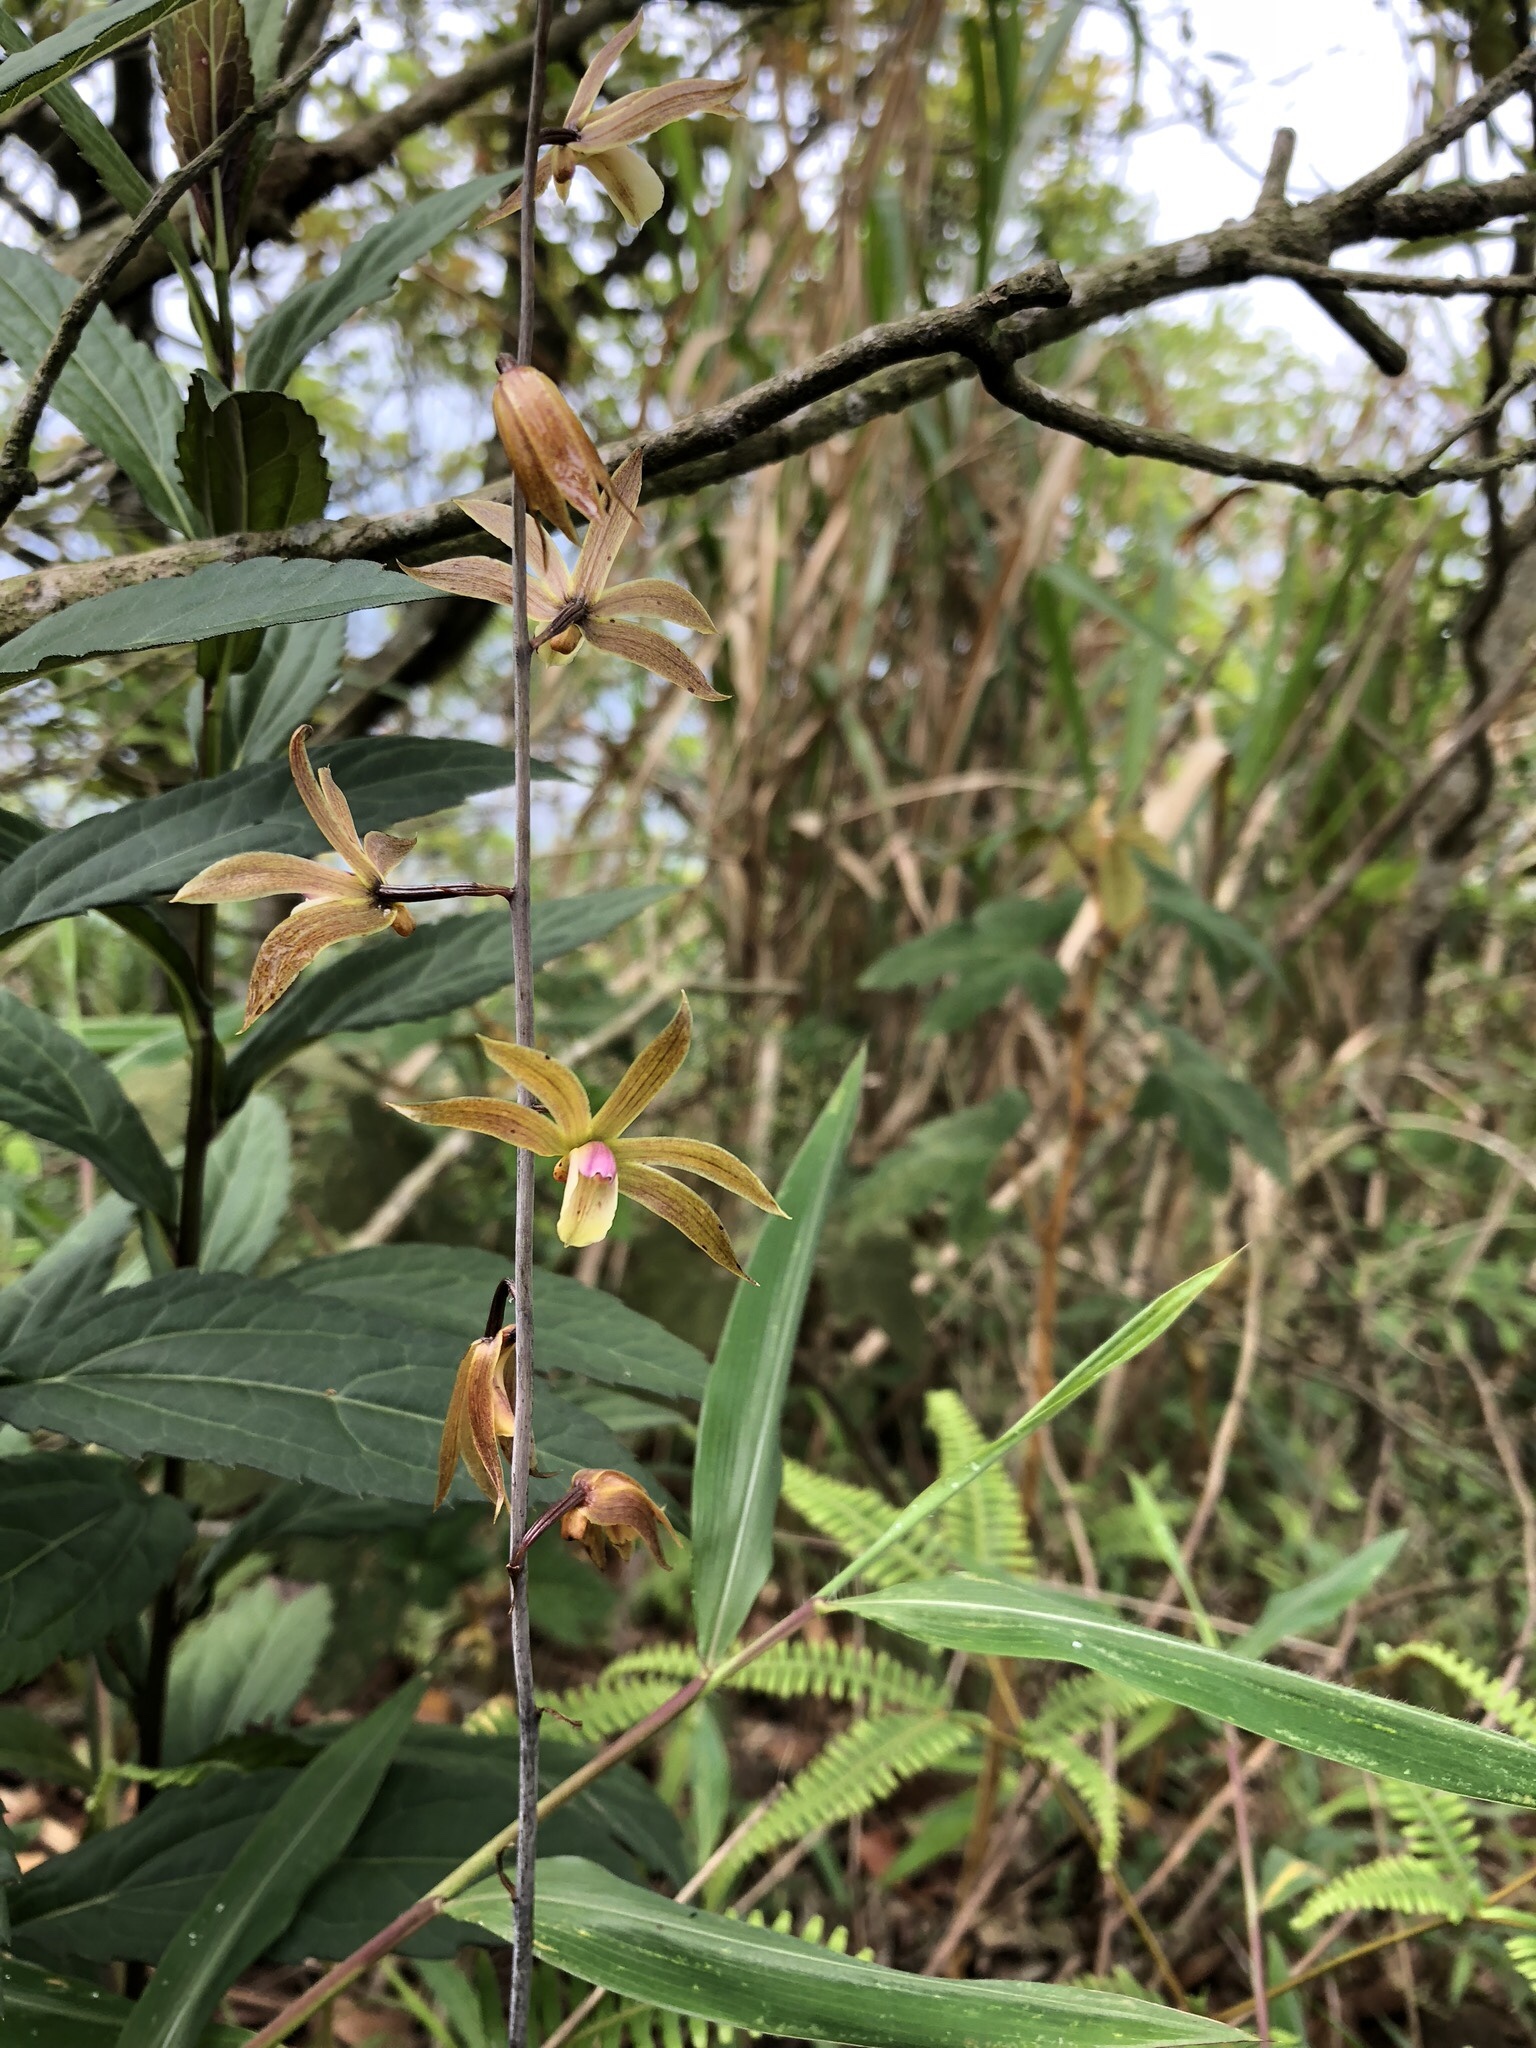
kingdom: Plantae
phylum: Tracheophyta
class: Liliopsida
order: Asparagales
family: Orchidaceae
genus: Ania
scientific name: Ania hongkongensis
